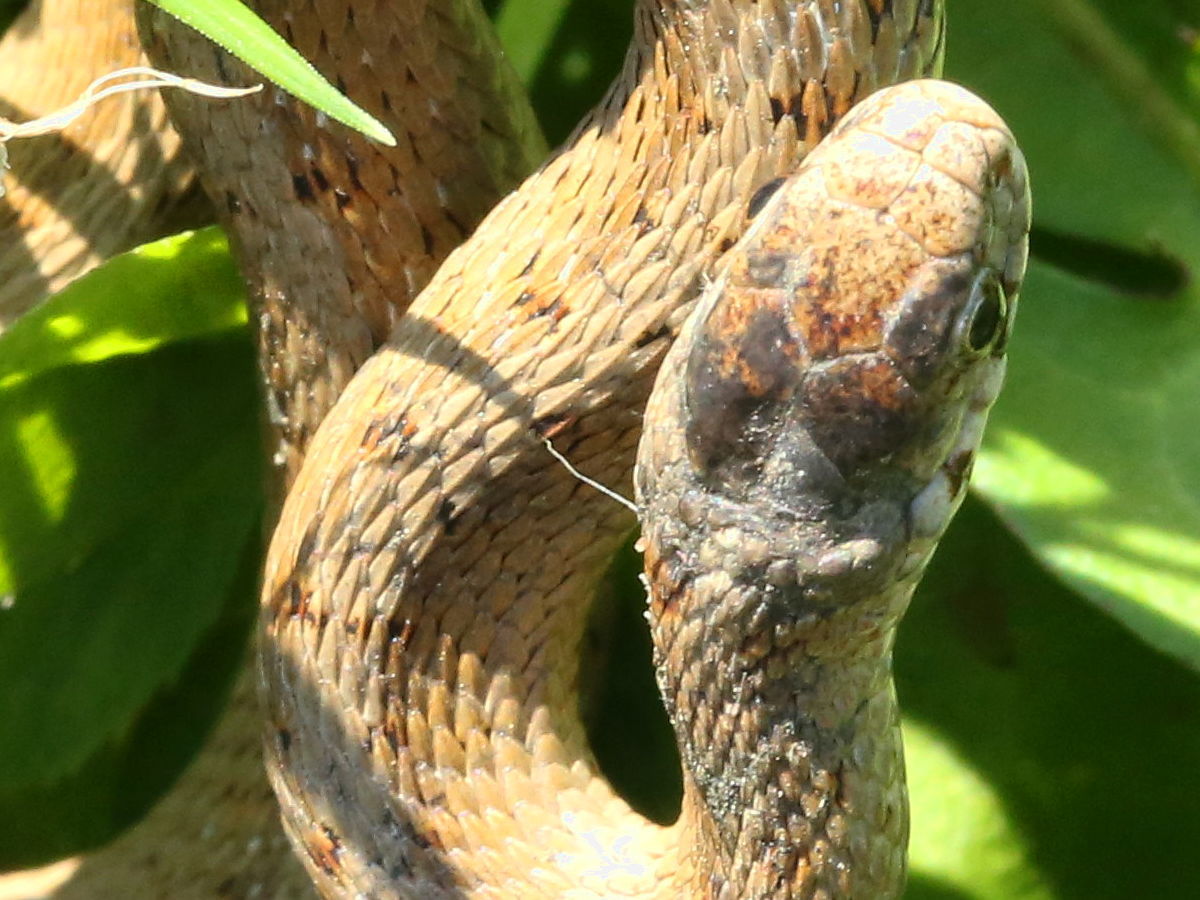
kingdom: Animalia
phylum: Chordata
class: Squamata
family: Colubridae
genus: Storeria
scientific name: Storeria dekayi
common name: (dekay’s) brown snake
